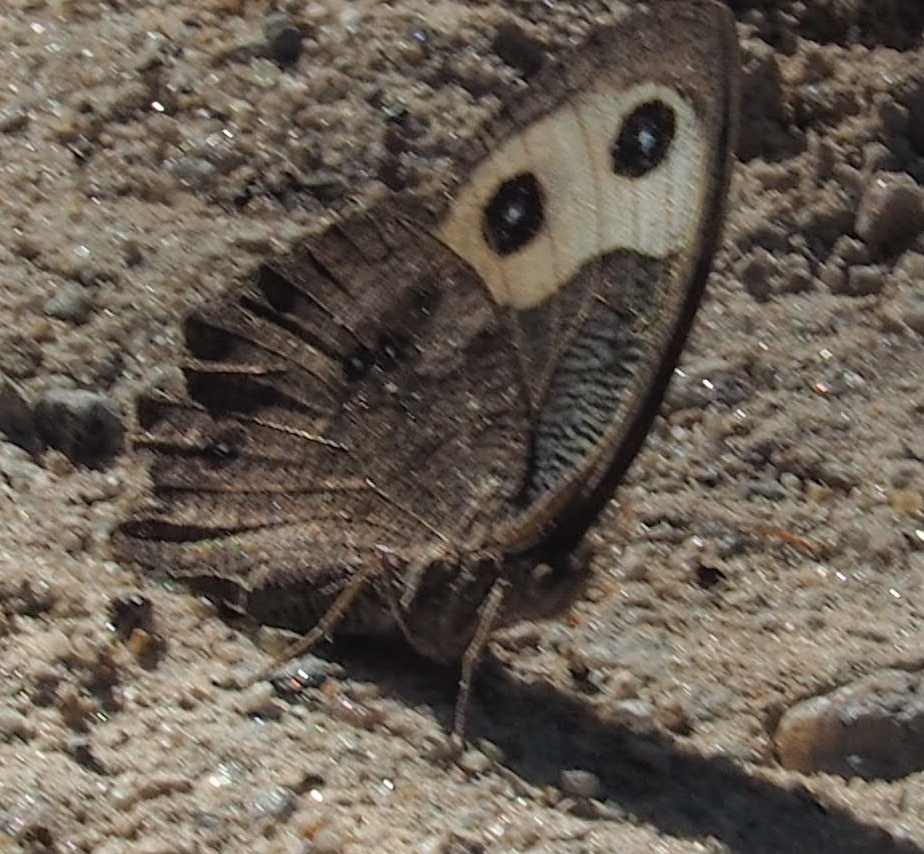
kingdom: Animalia
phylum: Arthropoda
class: Insecta
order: Lepidoptera
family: Nymphalidae
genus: Cercyonis
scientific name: Cercyonis pegala
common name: Common wood-nymph
